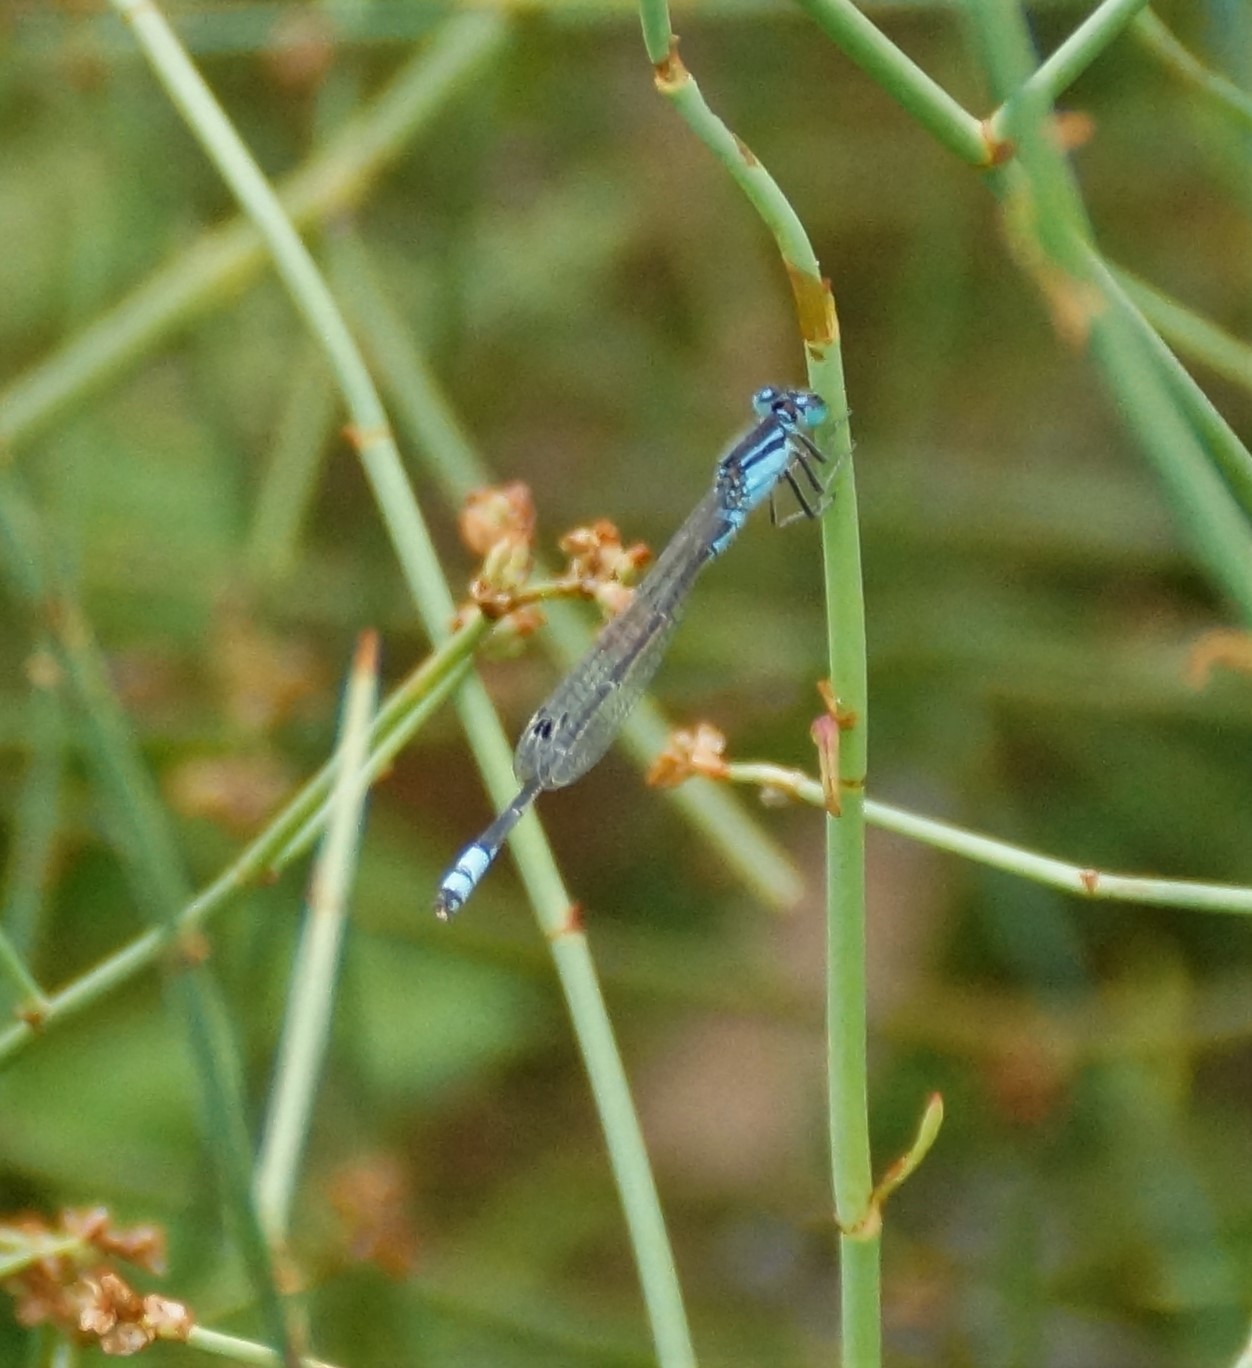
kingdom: Animalia
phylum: Arthropoda
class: Insecta
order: Odonata
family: Coenagrionidae
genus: Ischnura
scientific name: Ischnura heterosticta
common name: Common bluetail
